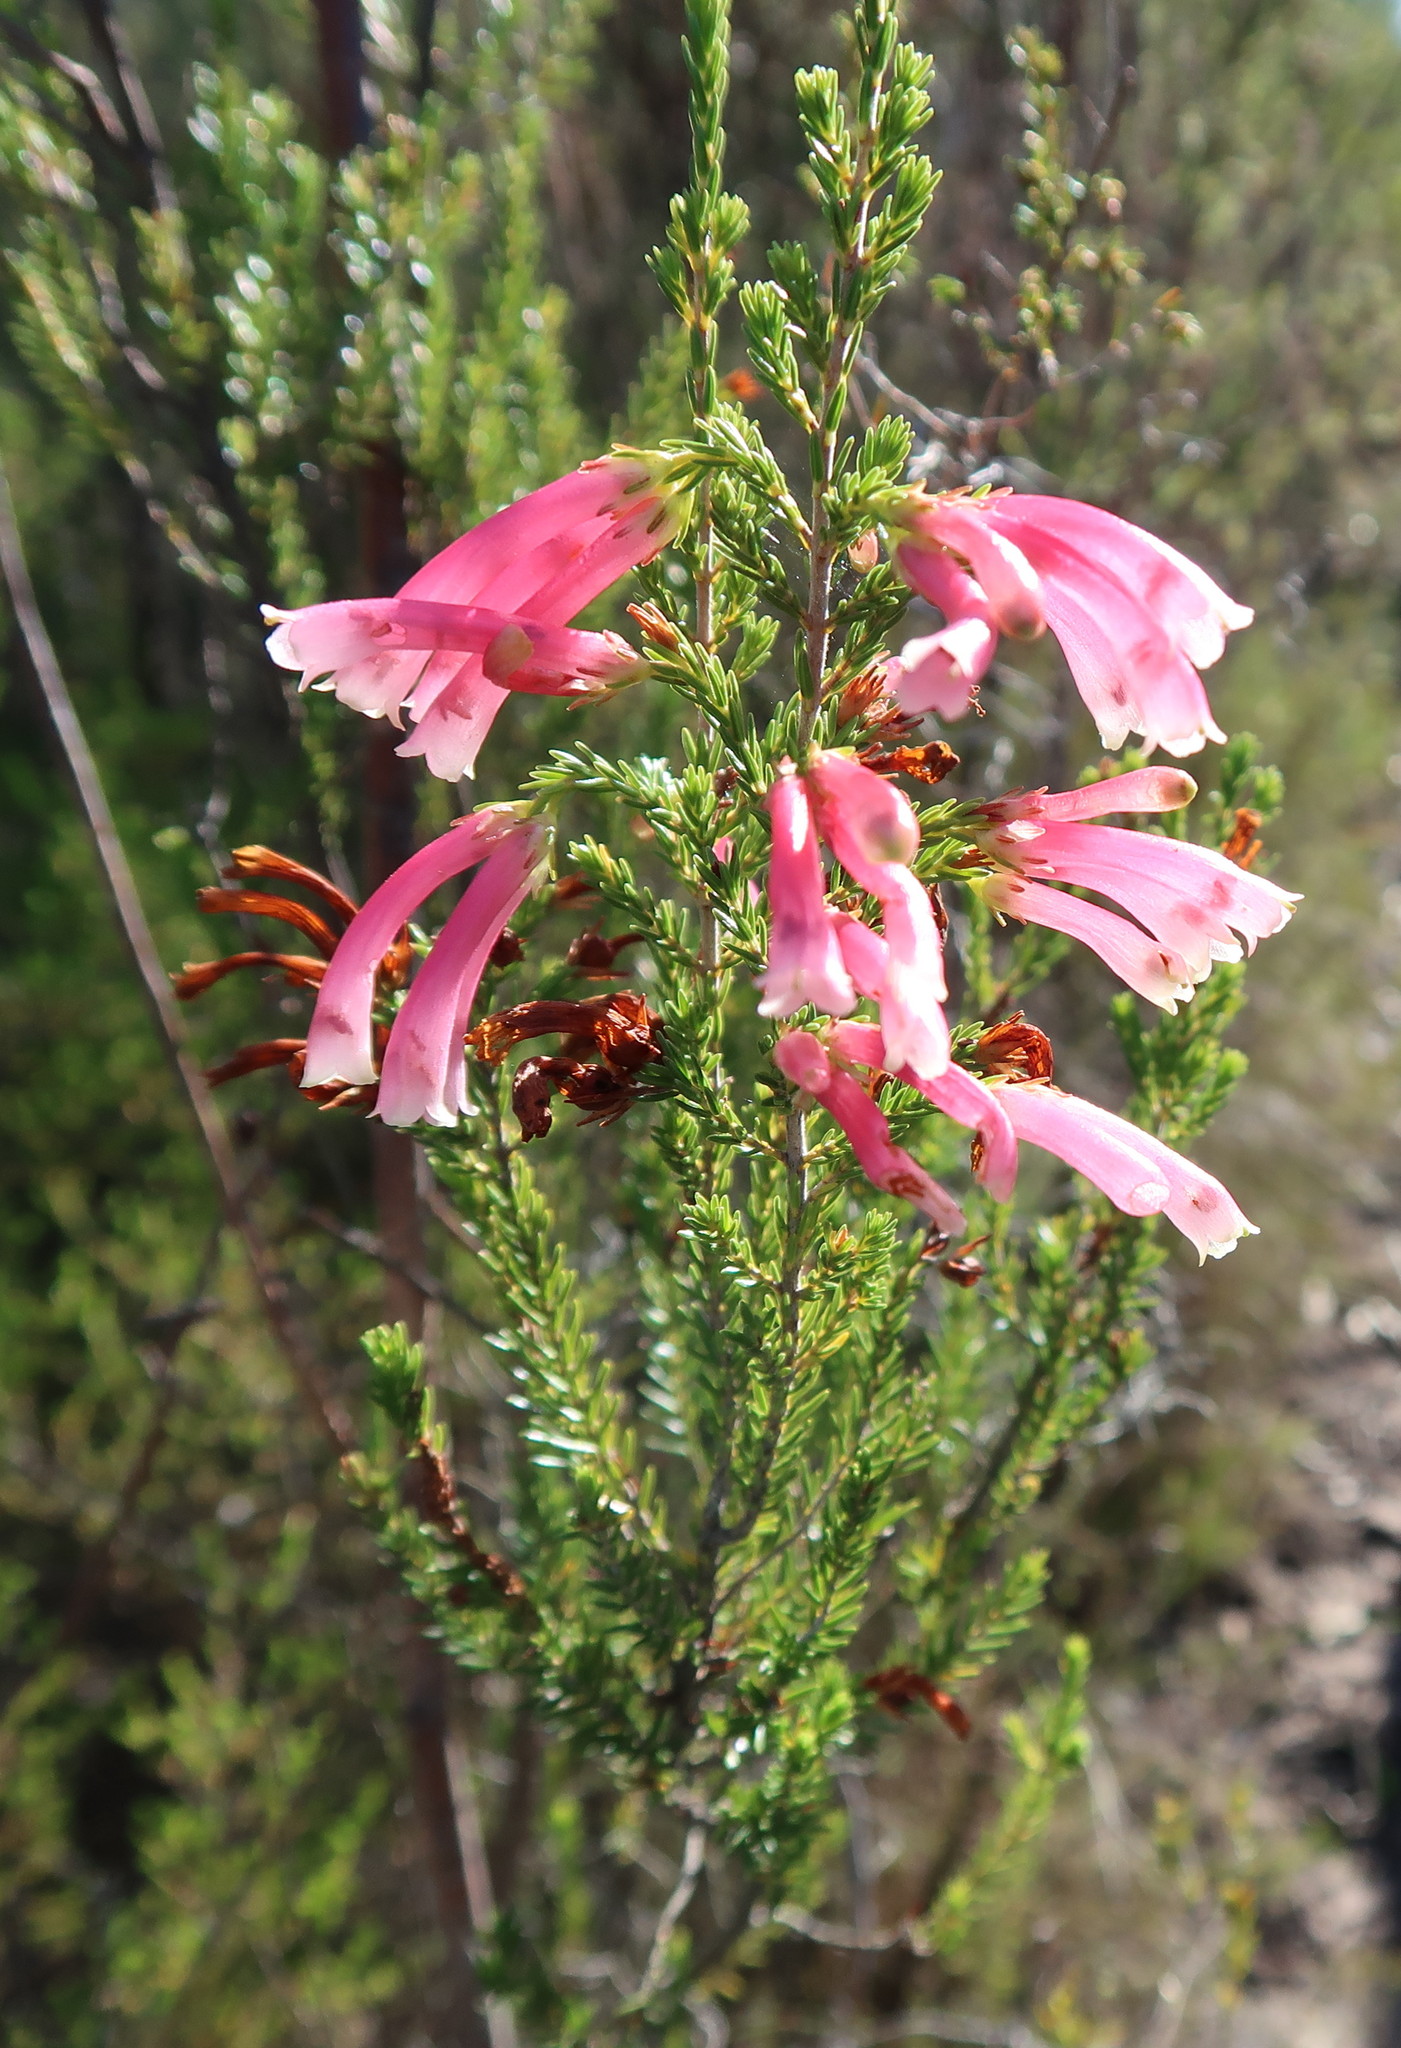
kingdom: Plantae
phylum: Tracheophyta
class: Magnoliopsida
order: Ericales
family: Ericaceae
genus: Erica
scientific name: Erica discolor
